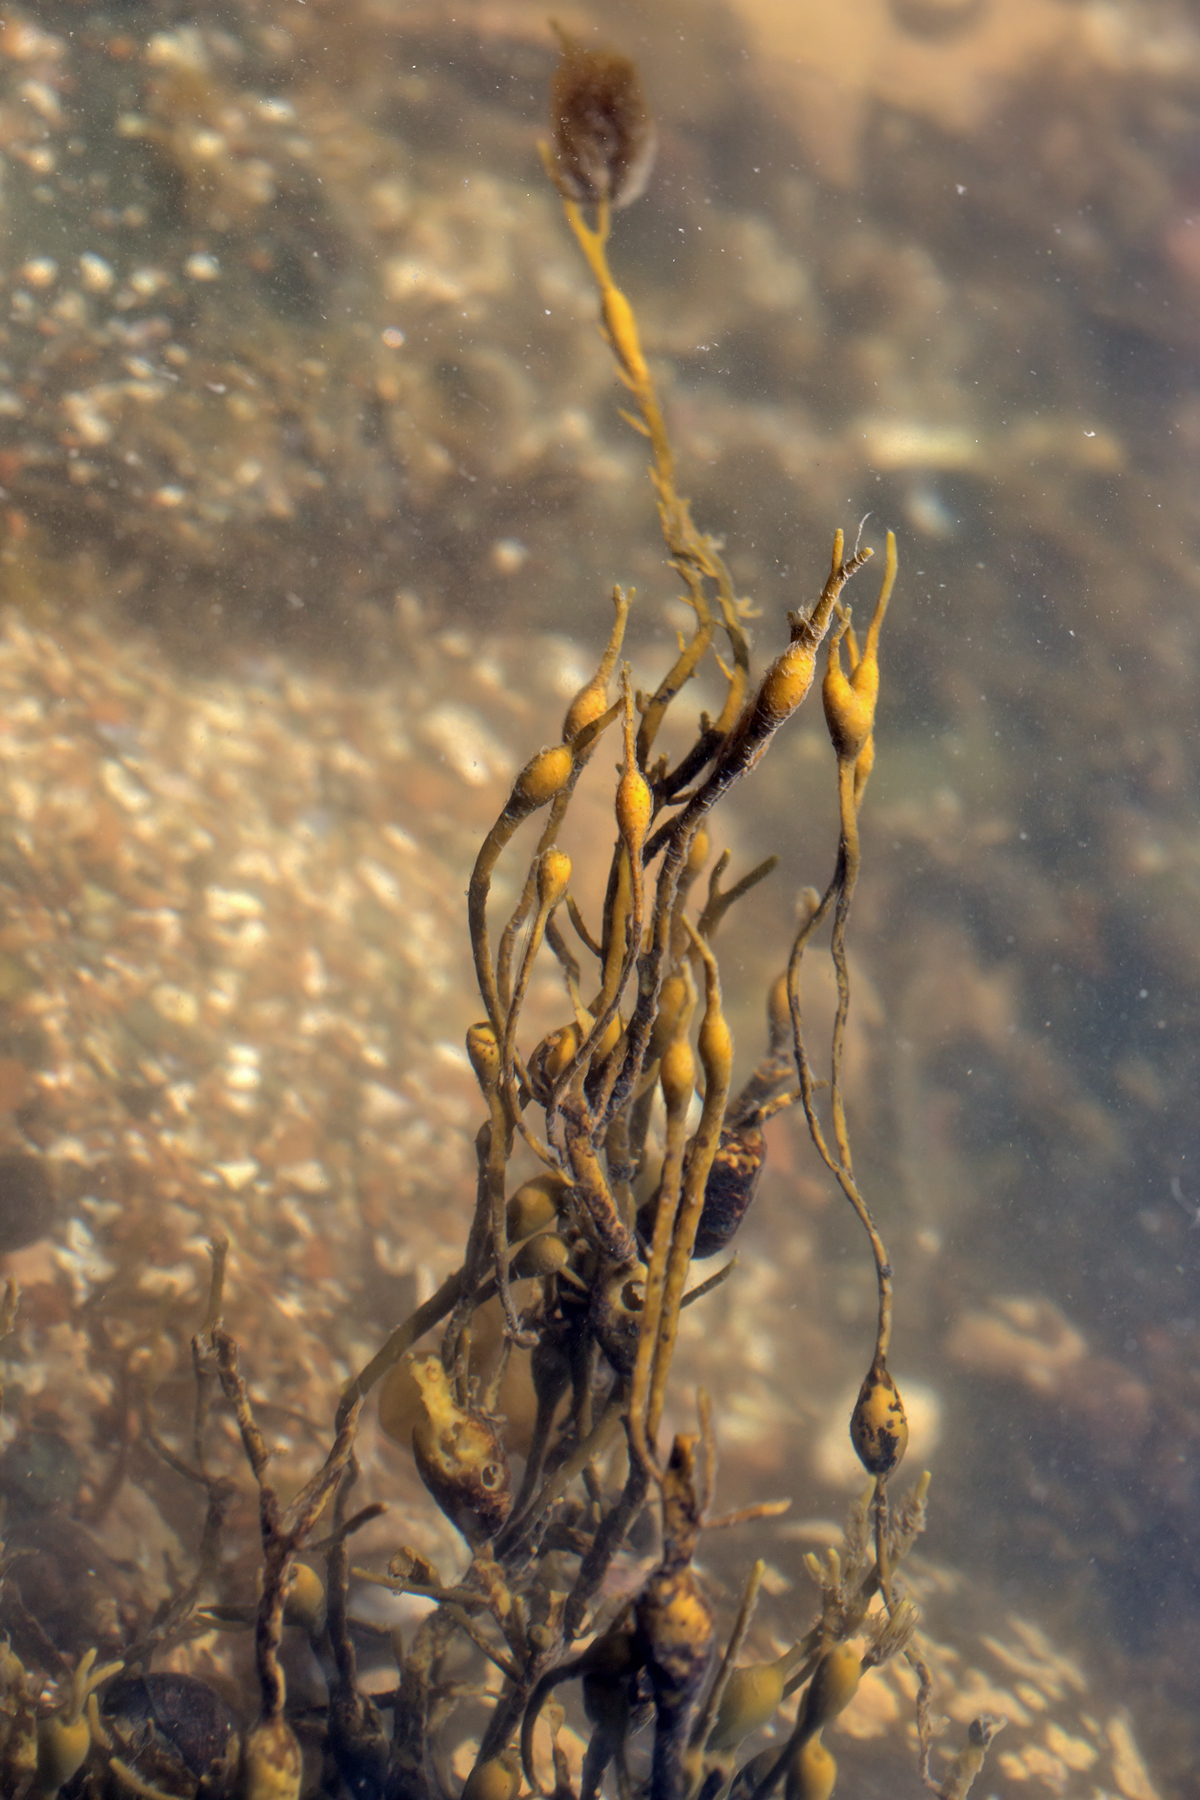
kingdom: Chromista
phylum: Ochrophyta
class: Phaeophyceae
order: Fucales
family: Fucaceae
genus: Ascophyllum
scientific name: Ascophyllum nodosum
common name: Knotted wrack
